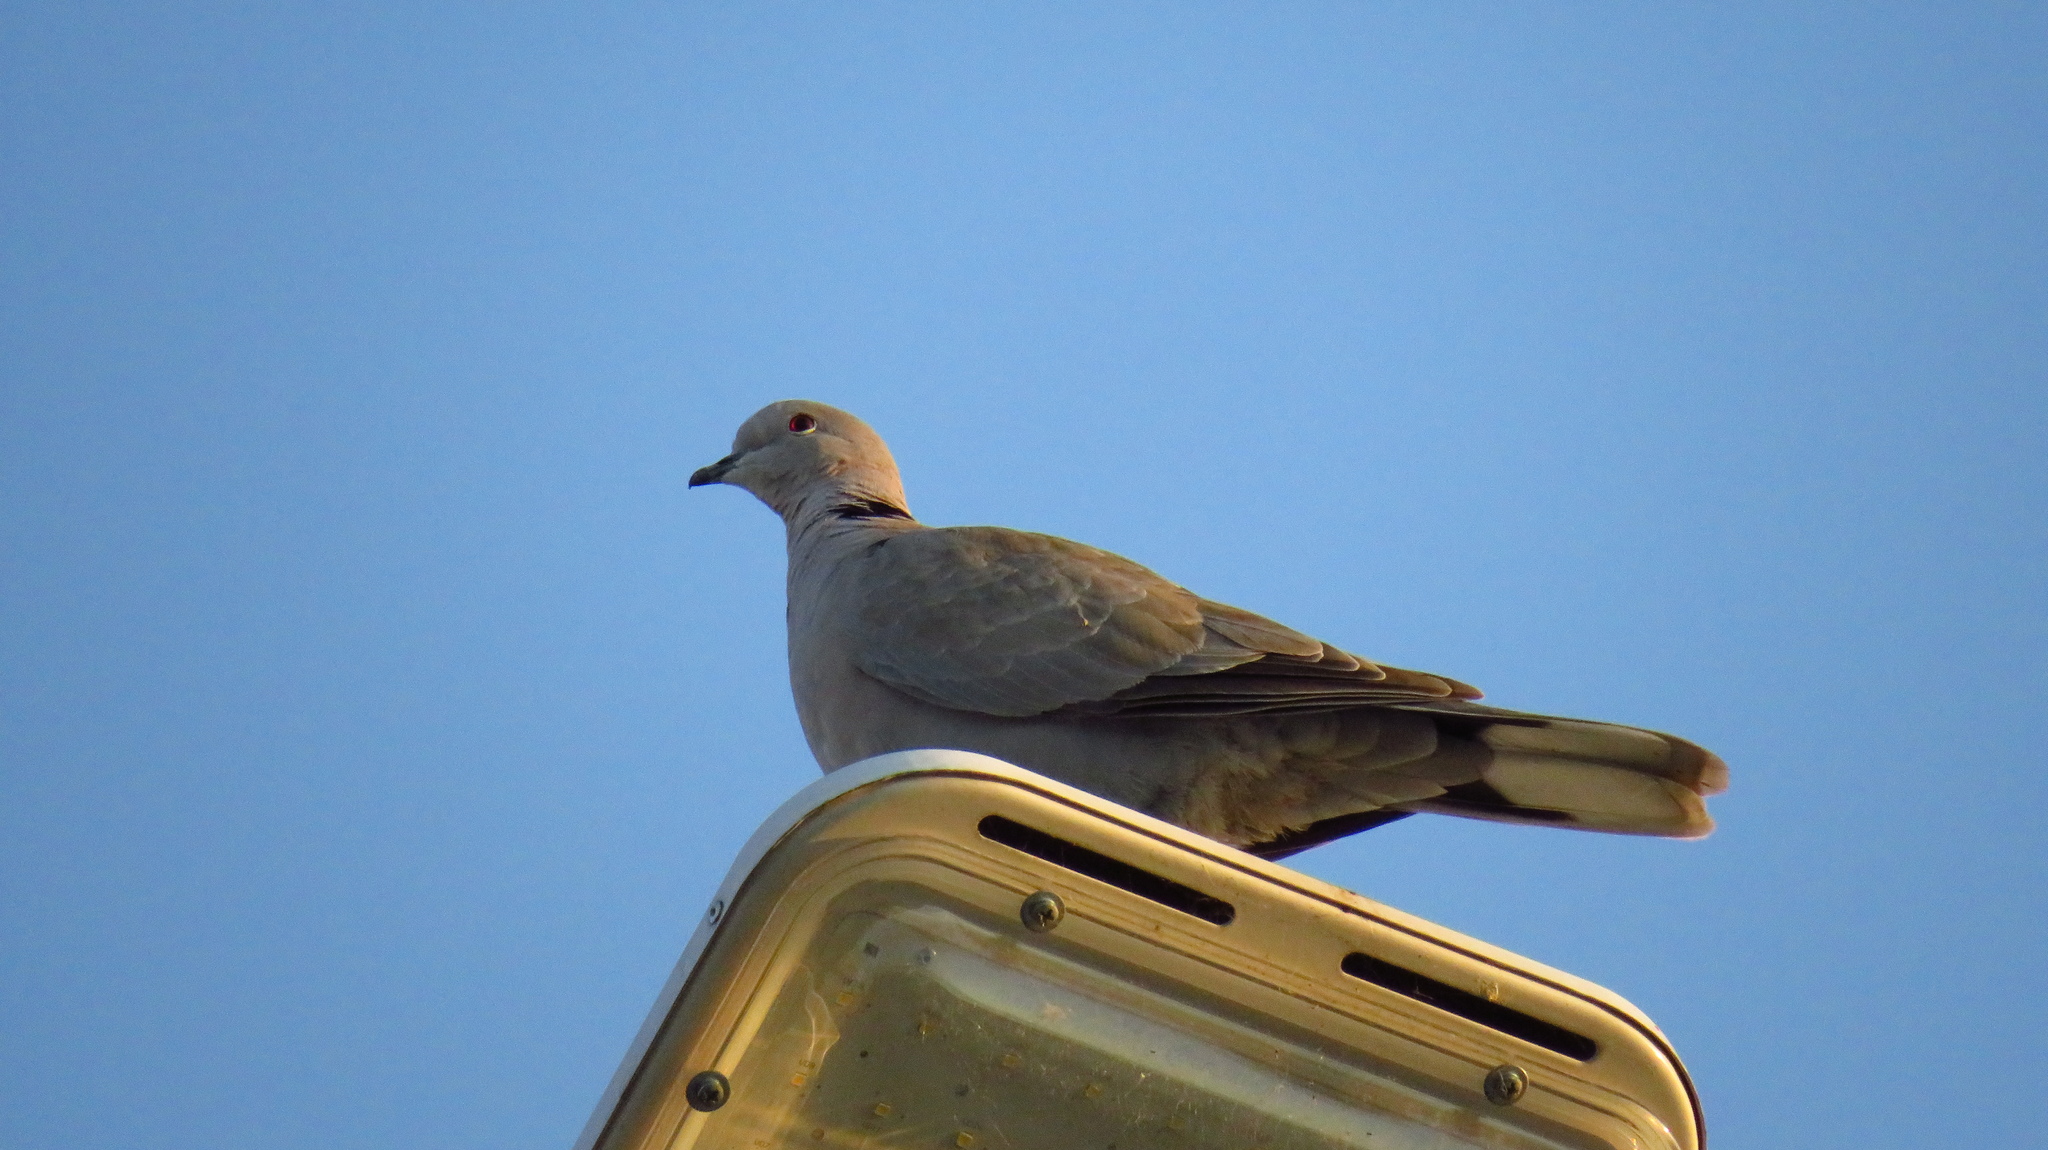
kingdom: Animalia
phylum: Chordata
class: Aves
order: Columbiformes
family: Columbidae
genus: Streptopelia
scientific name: Streptopelia decaocto
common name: Eurasian collared dove
